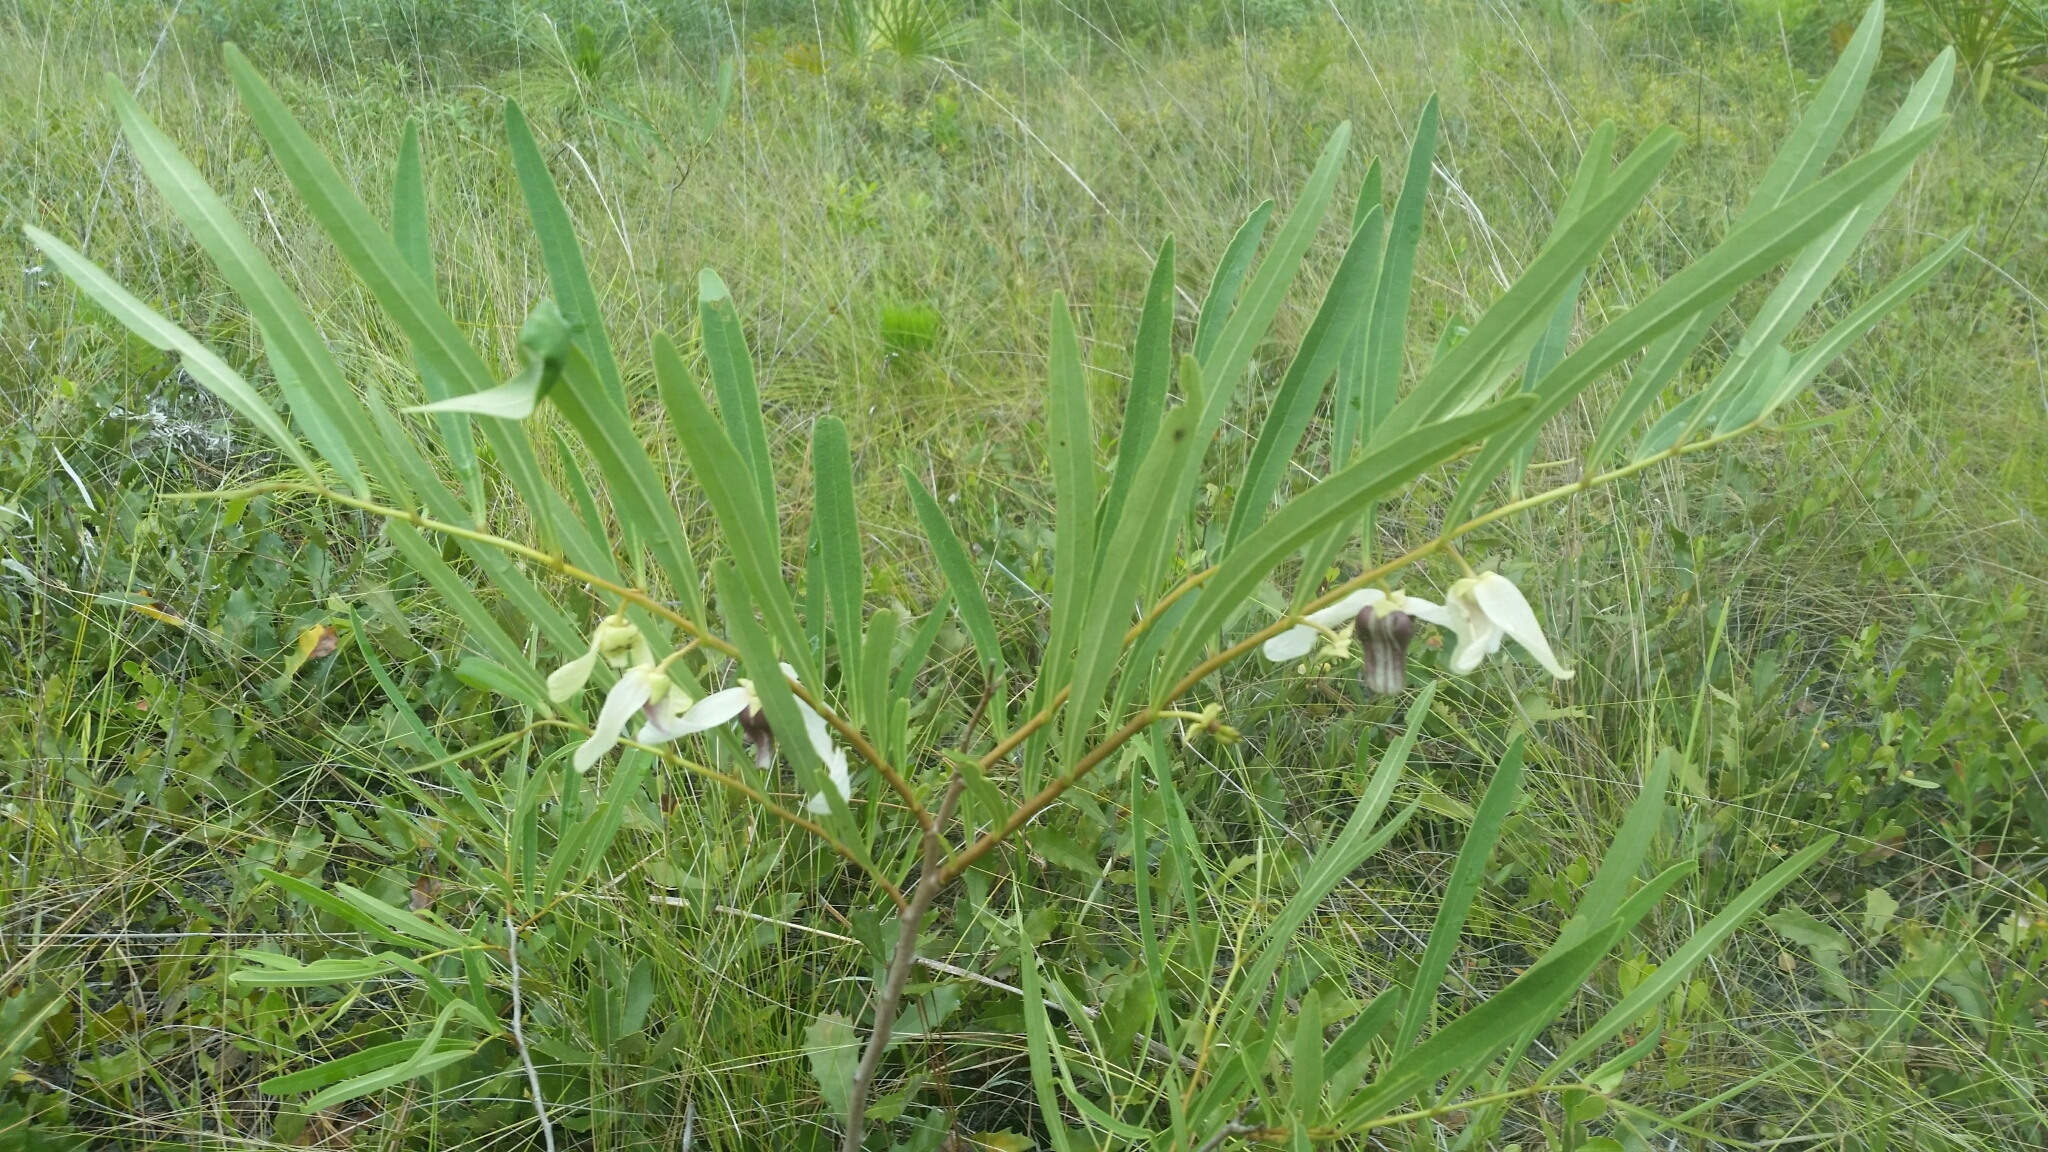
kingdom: Plantae
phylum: Tracheophyta
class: Magnoliopsida
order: Magnoliales
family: Annonaceae
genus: Asimina
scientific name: Asimina longifolia
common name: Polecatbush
